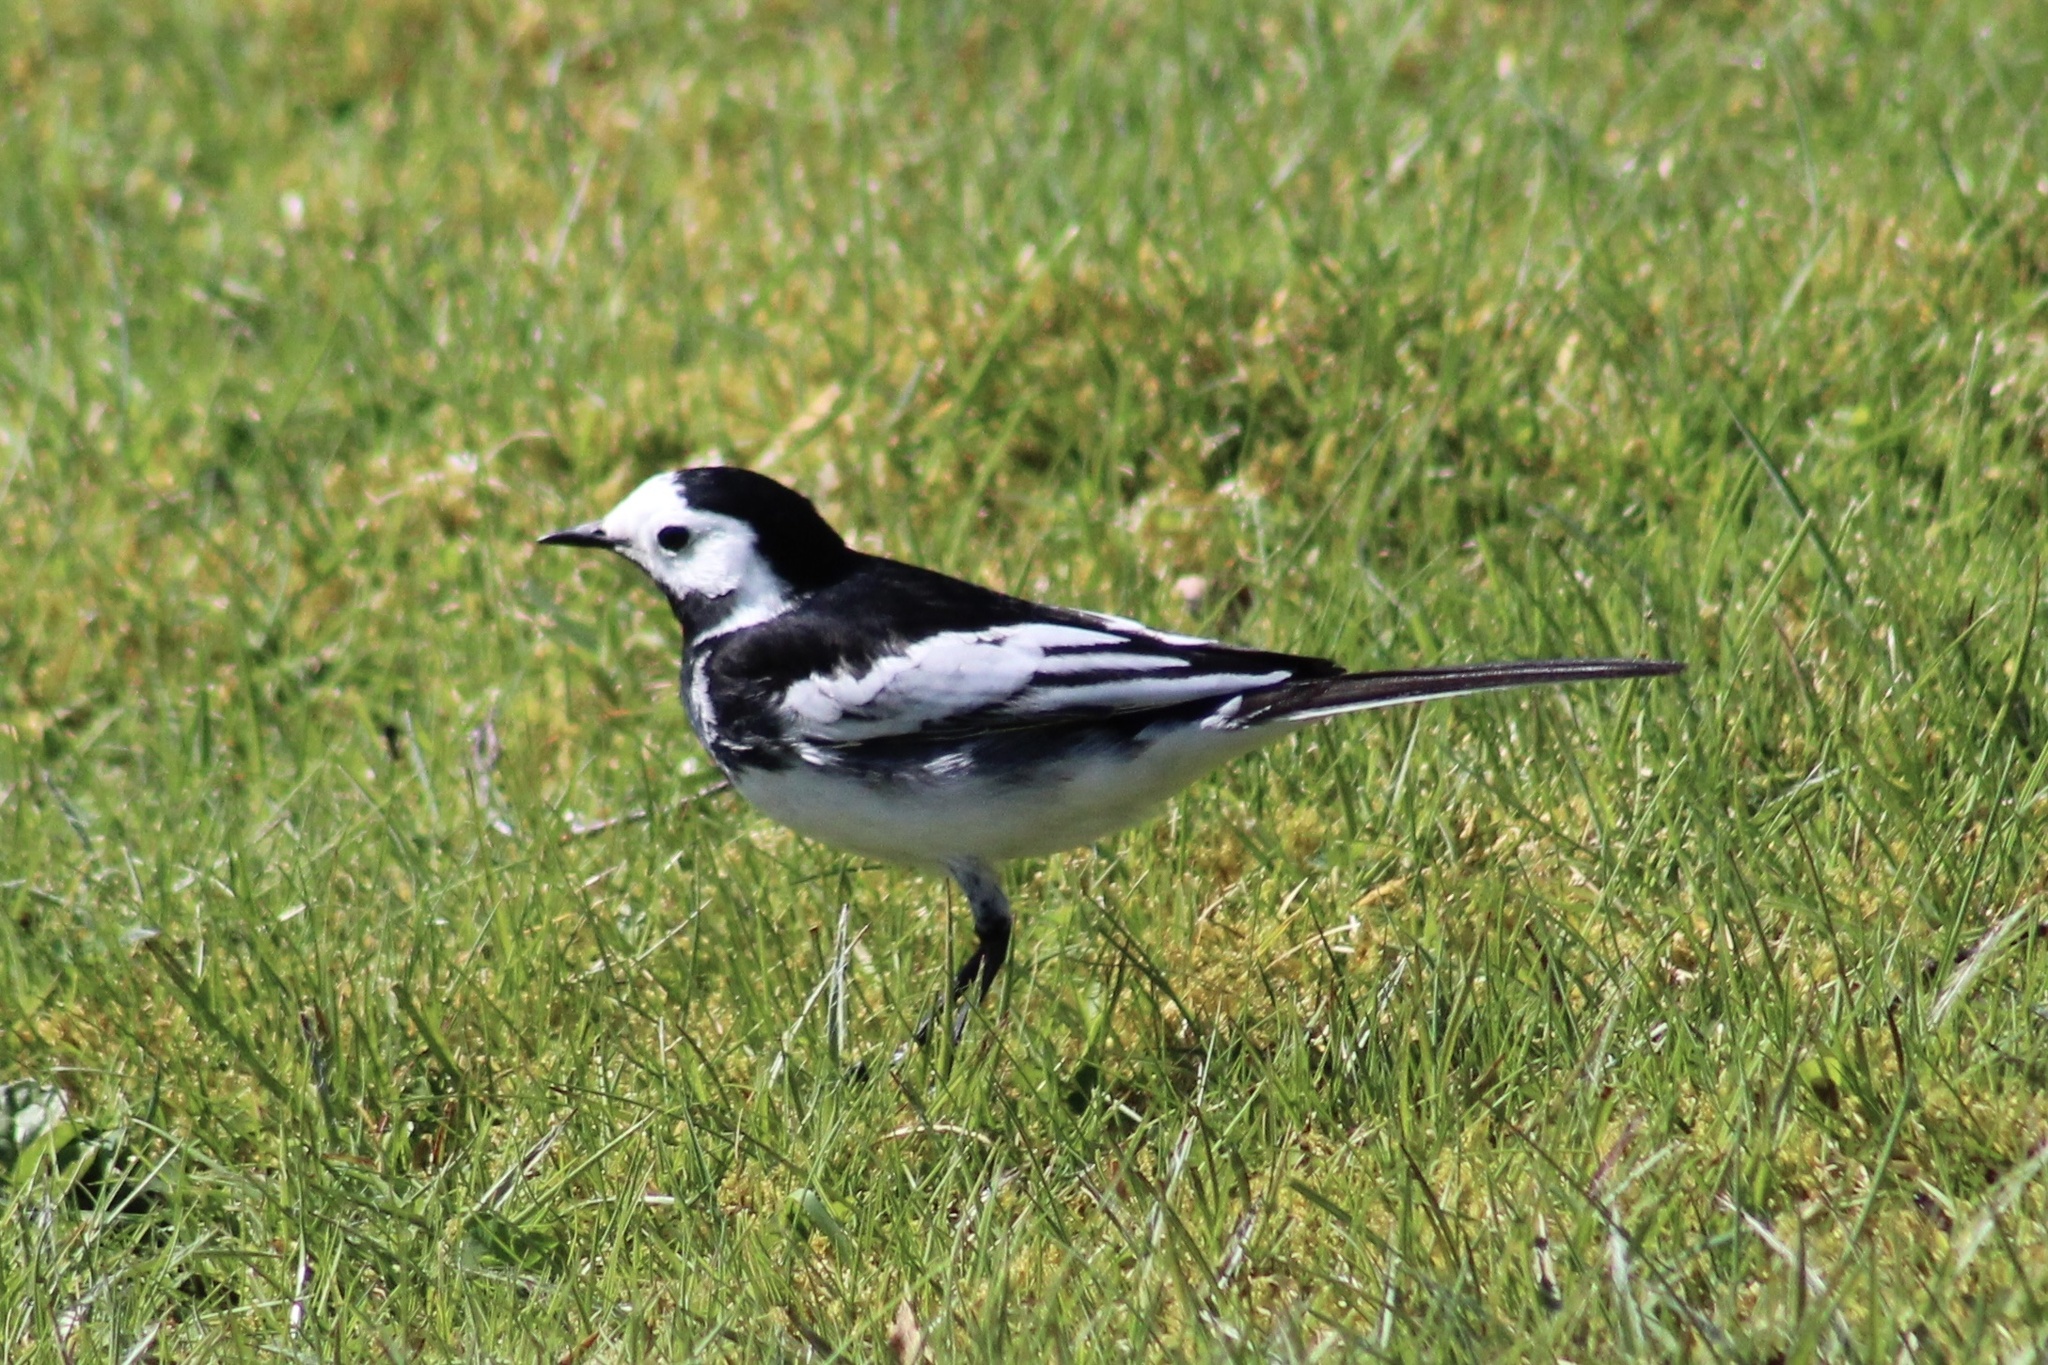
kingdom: Animalia
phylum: Chordata
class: Aves
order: Passeriformes
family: Motacillidae
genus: Motacilla
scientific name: Motacilla alba
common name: White wagtail
